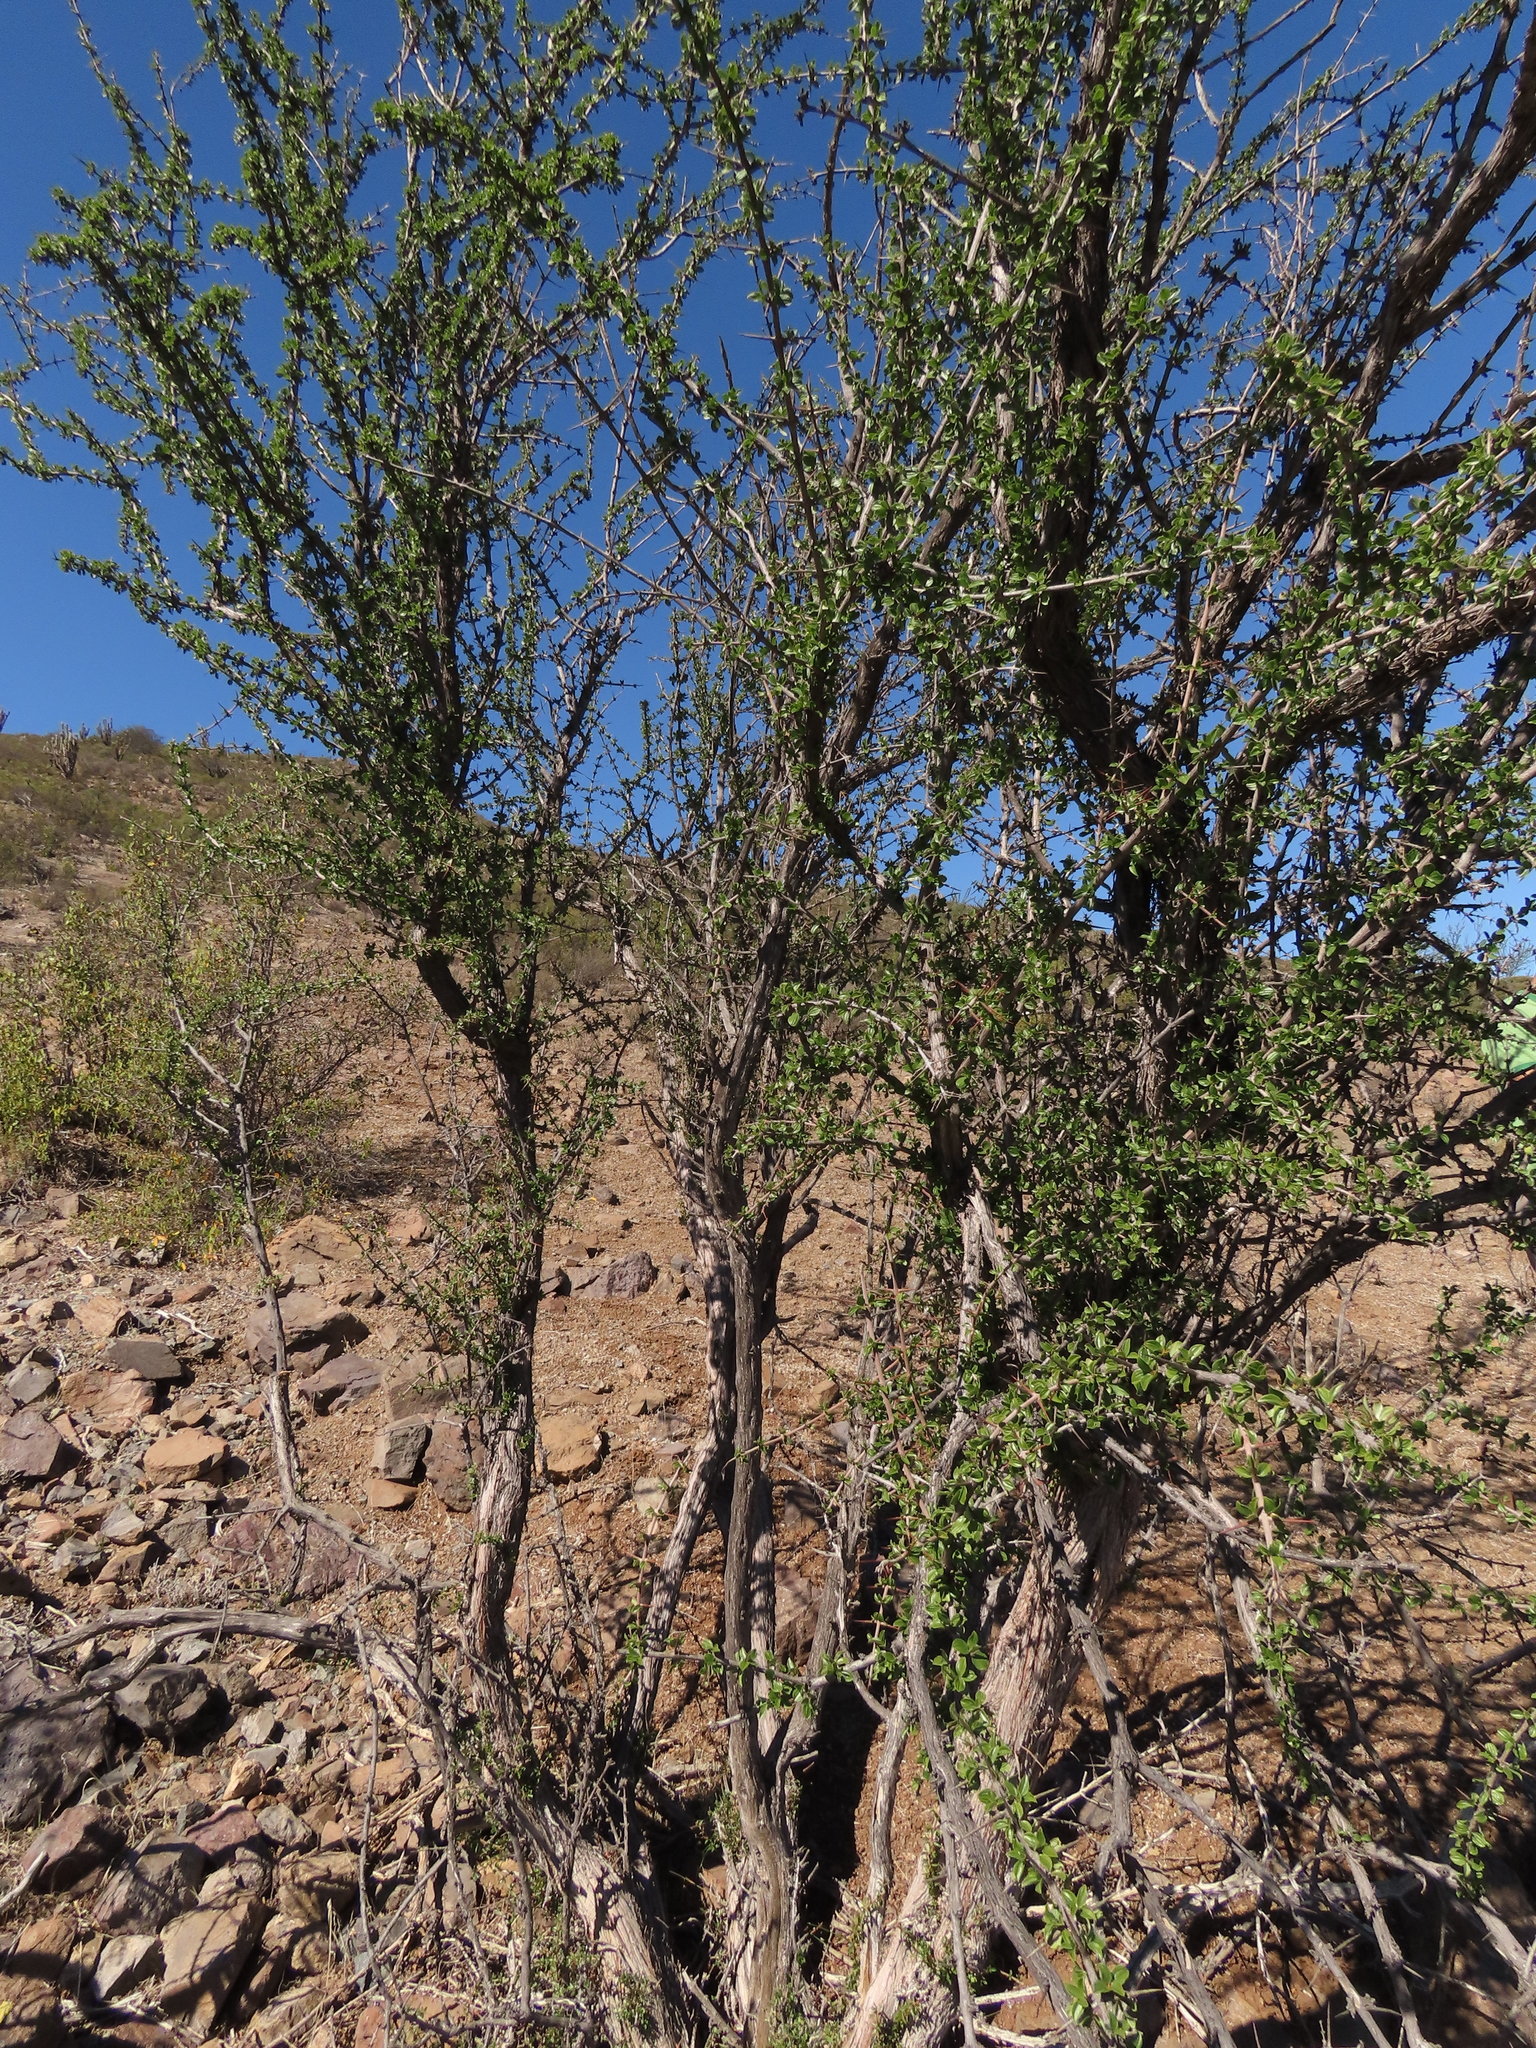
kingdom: Plantae
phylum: Tracheophyta
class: Magnoliopsida
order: Rosales
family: Rhamnaceae
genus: Trevoa
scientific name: Trevoa quinquenervia
